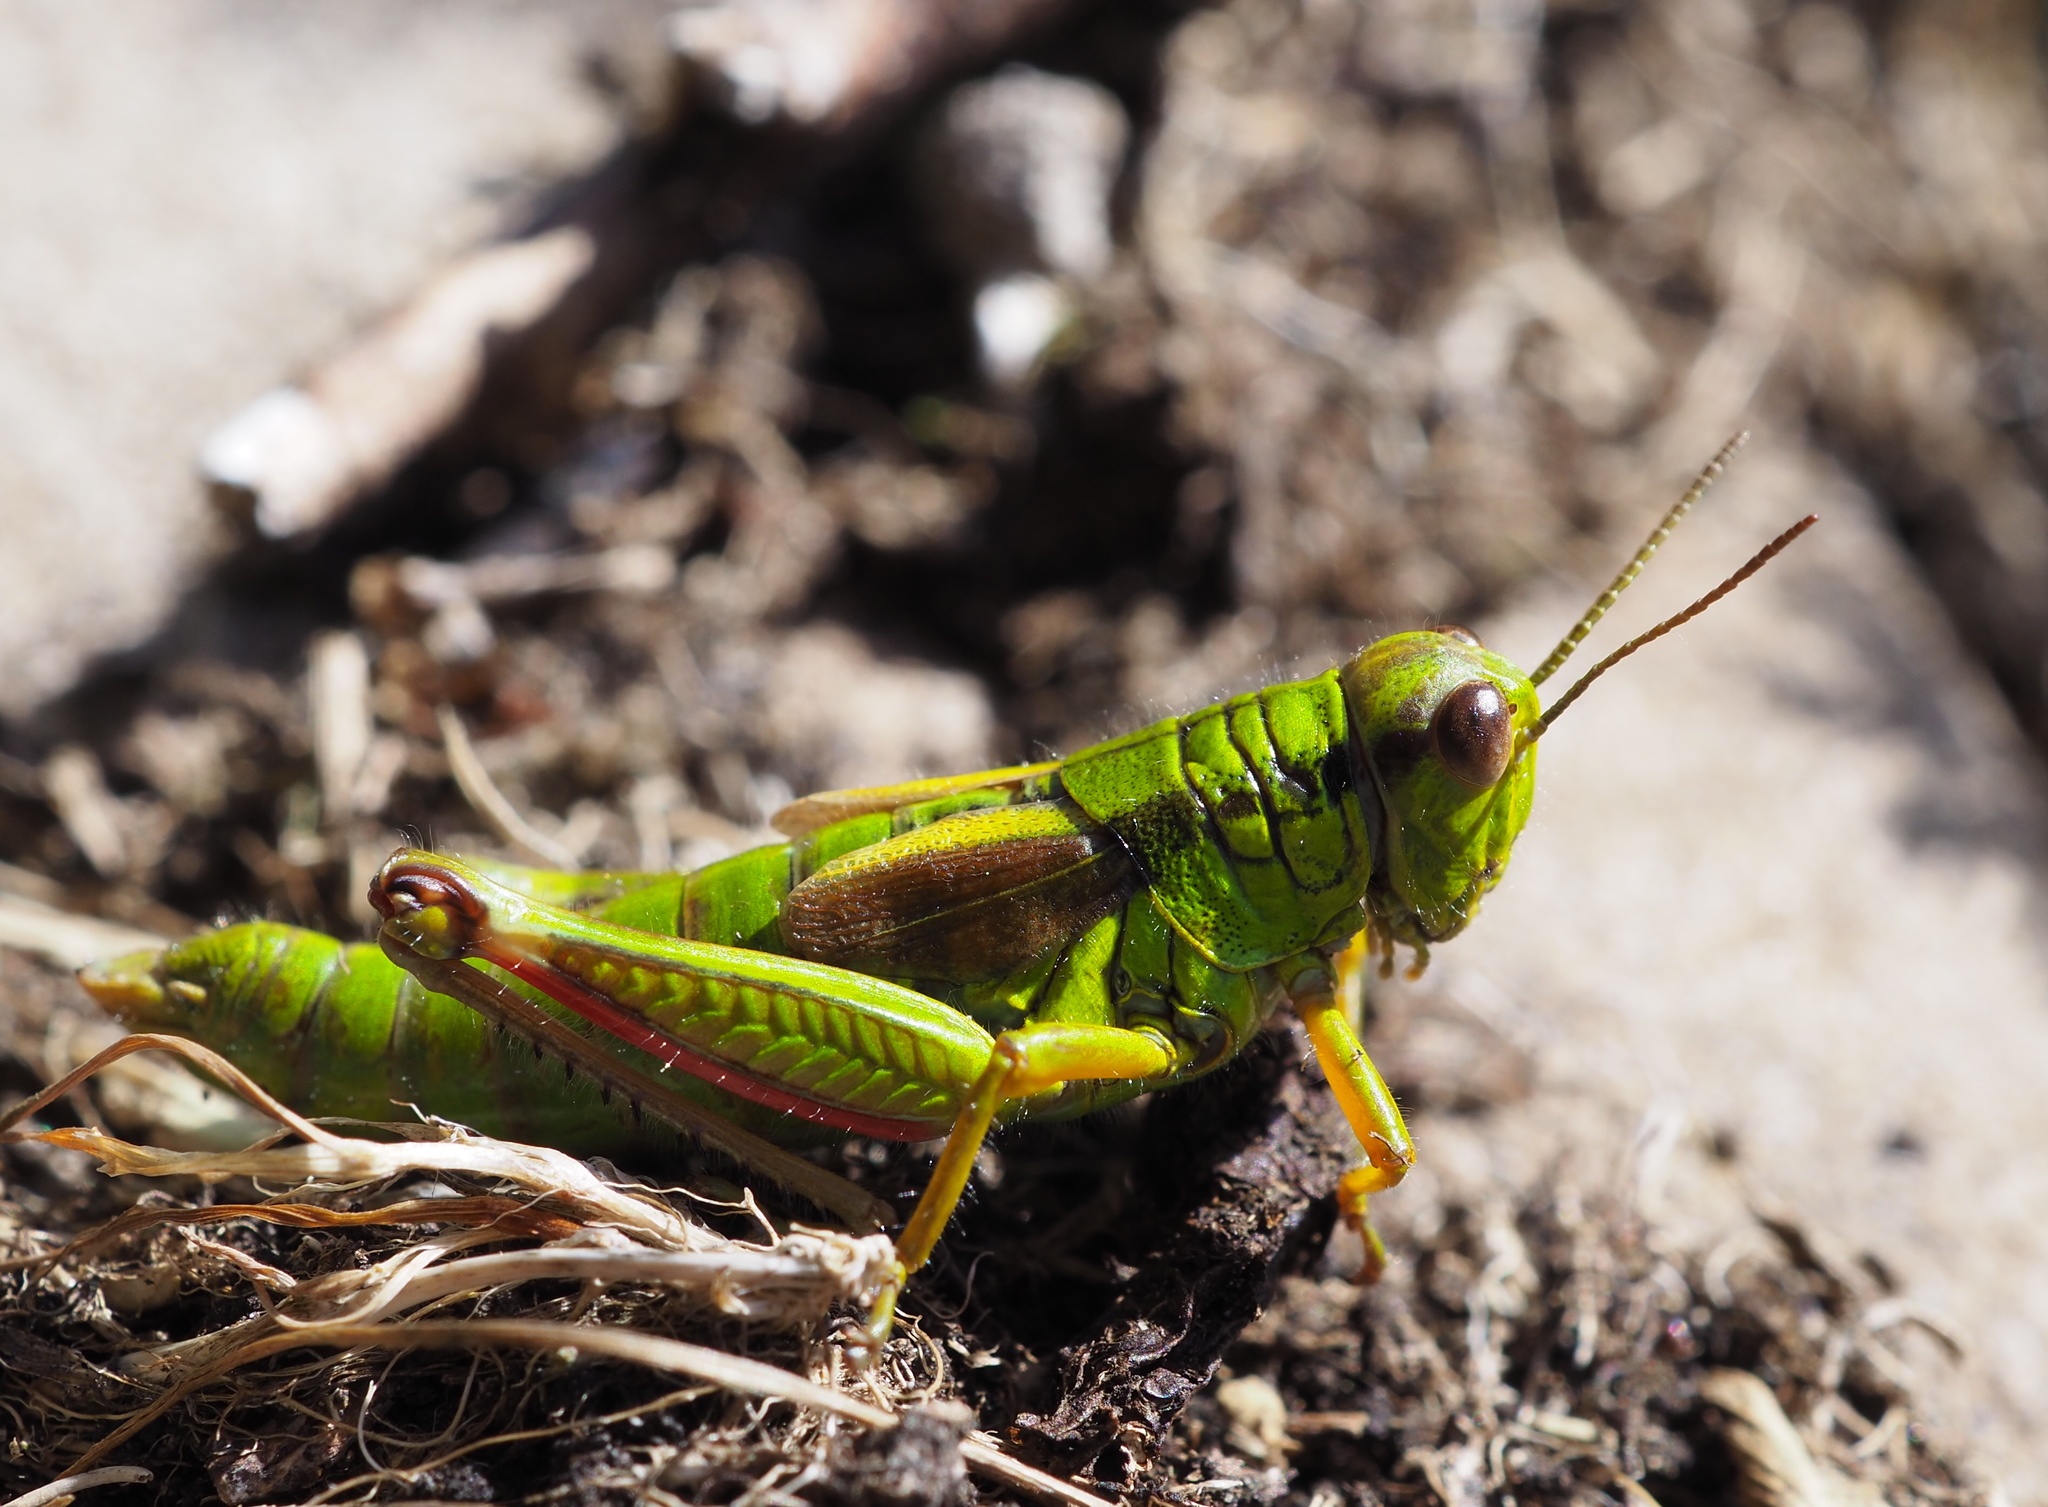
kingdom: Animalia
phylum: Arthropoda
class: Insecta
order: Orthoptera
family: Acrididae
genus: Miramella
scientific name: Miramella frinias
